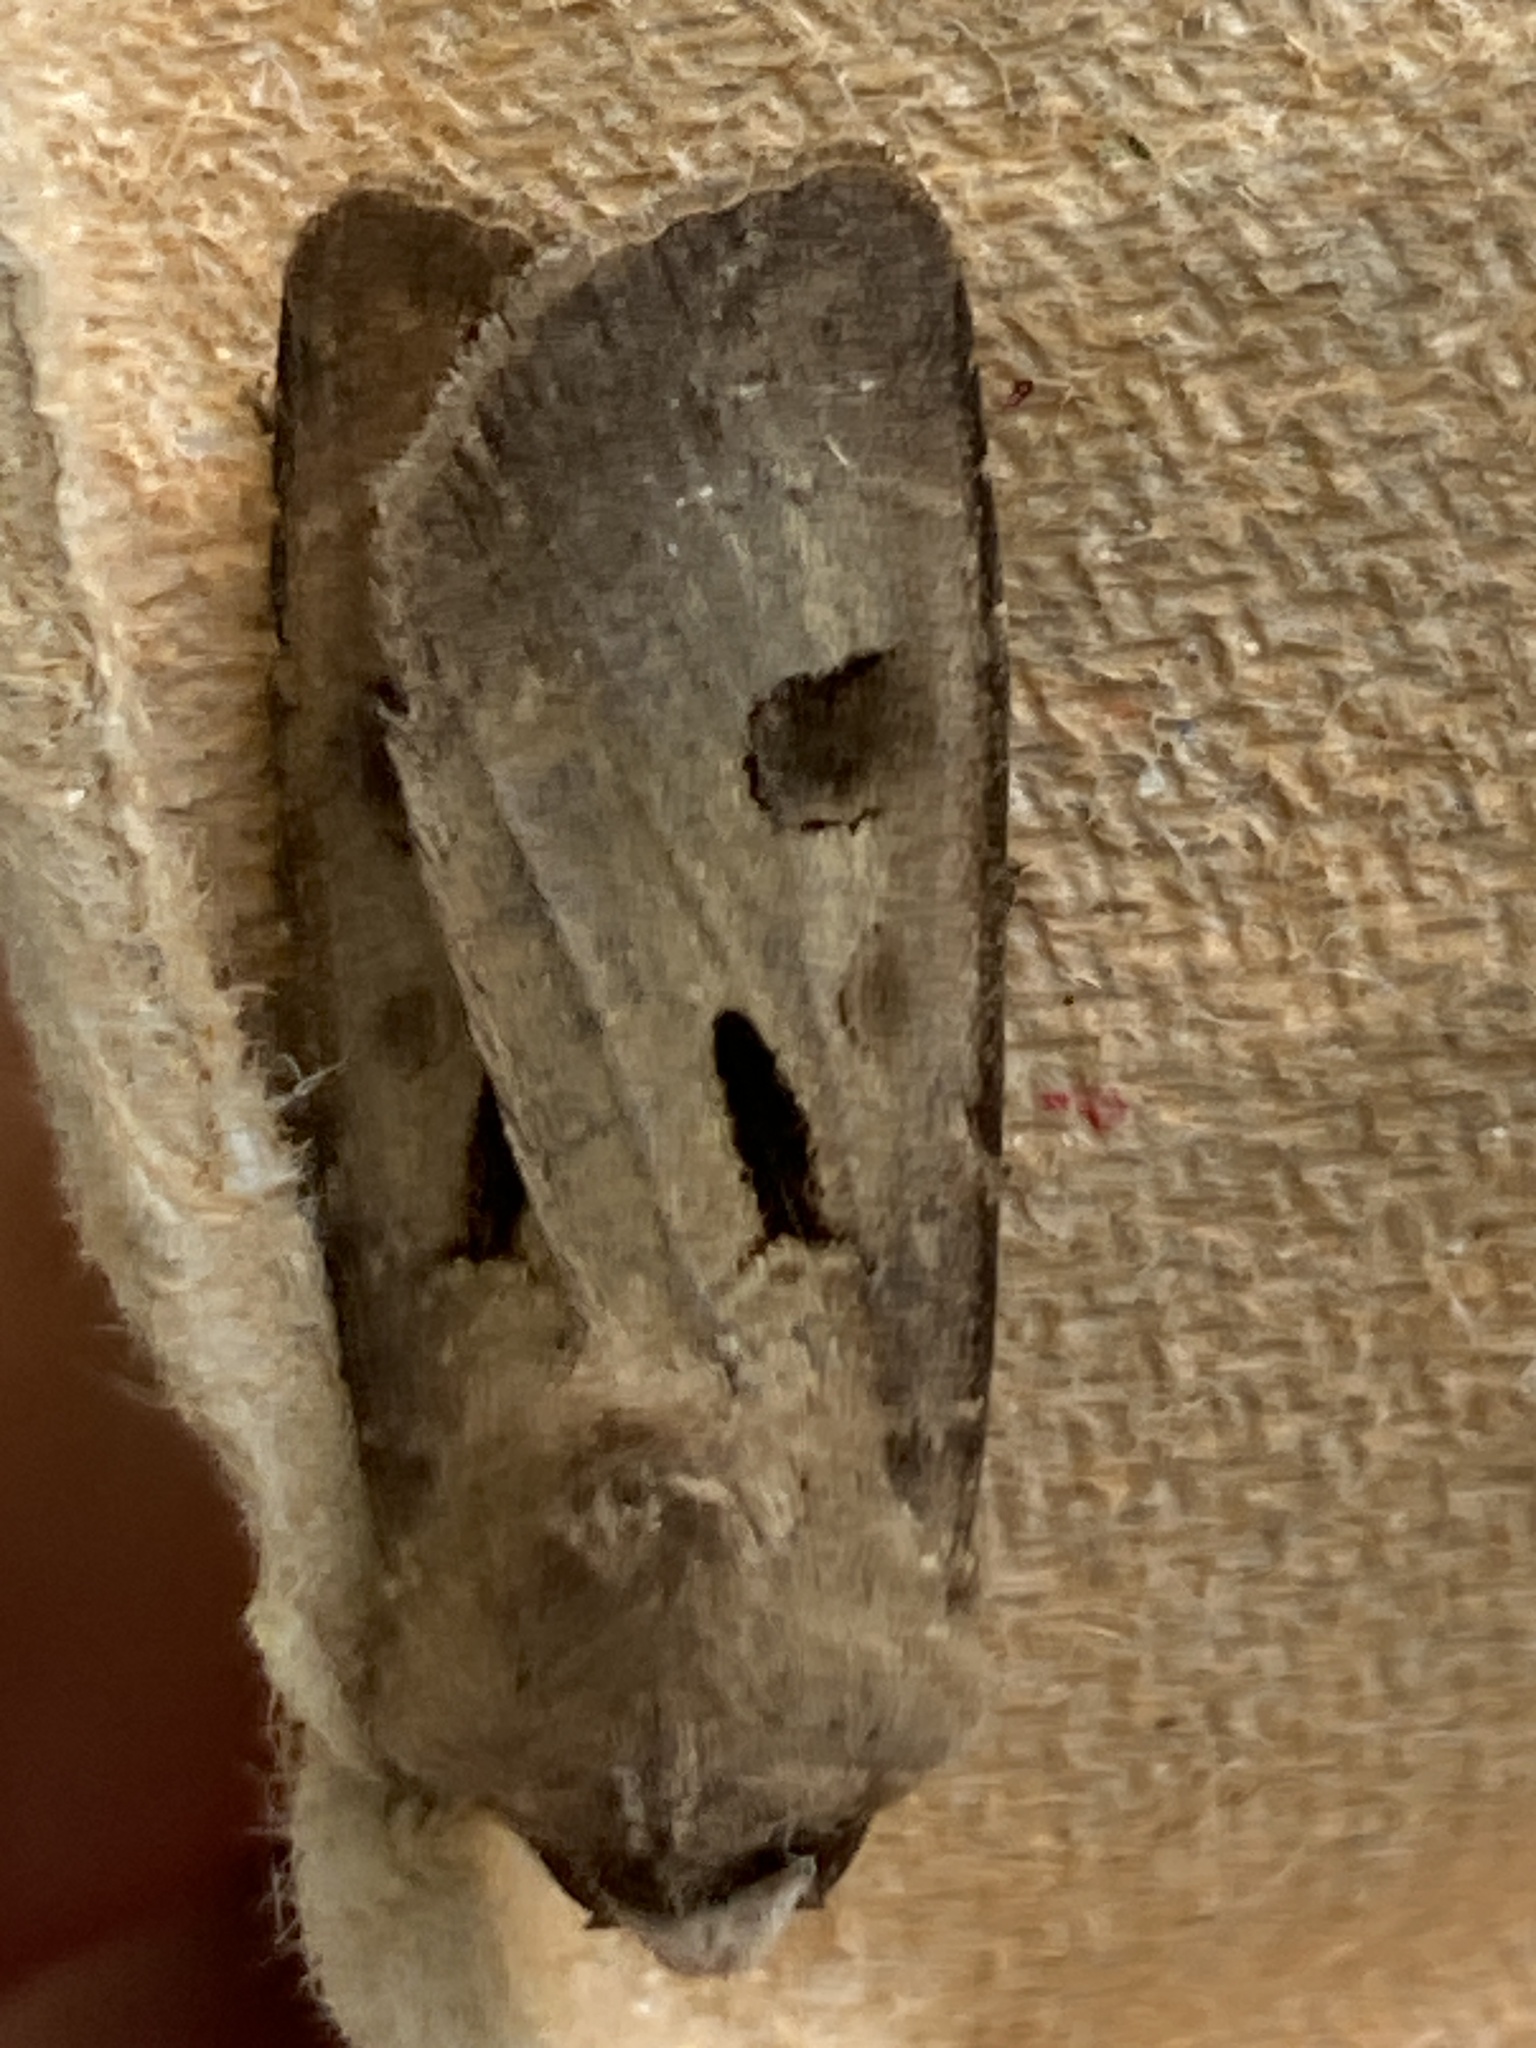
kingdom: Animalia
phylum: Arthropoda
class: Insecta
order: Lepidoptera
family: Noctuidae
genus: Agrotis
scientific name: Agrotis exclamationis
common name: Heart and dart
